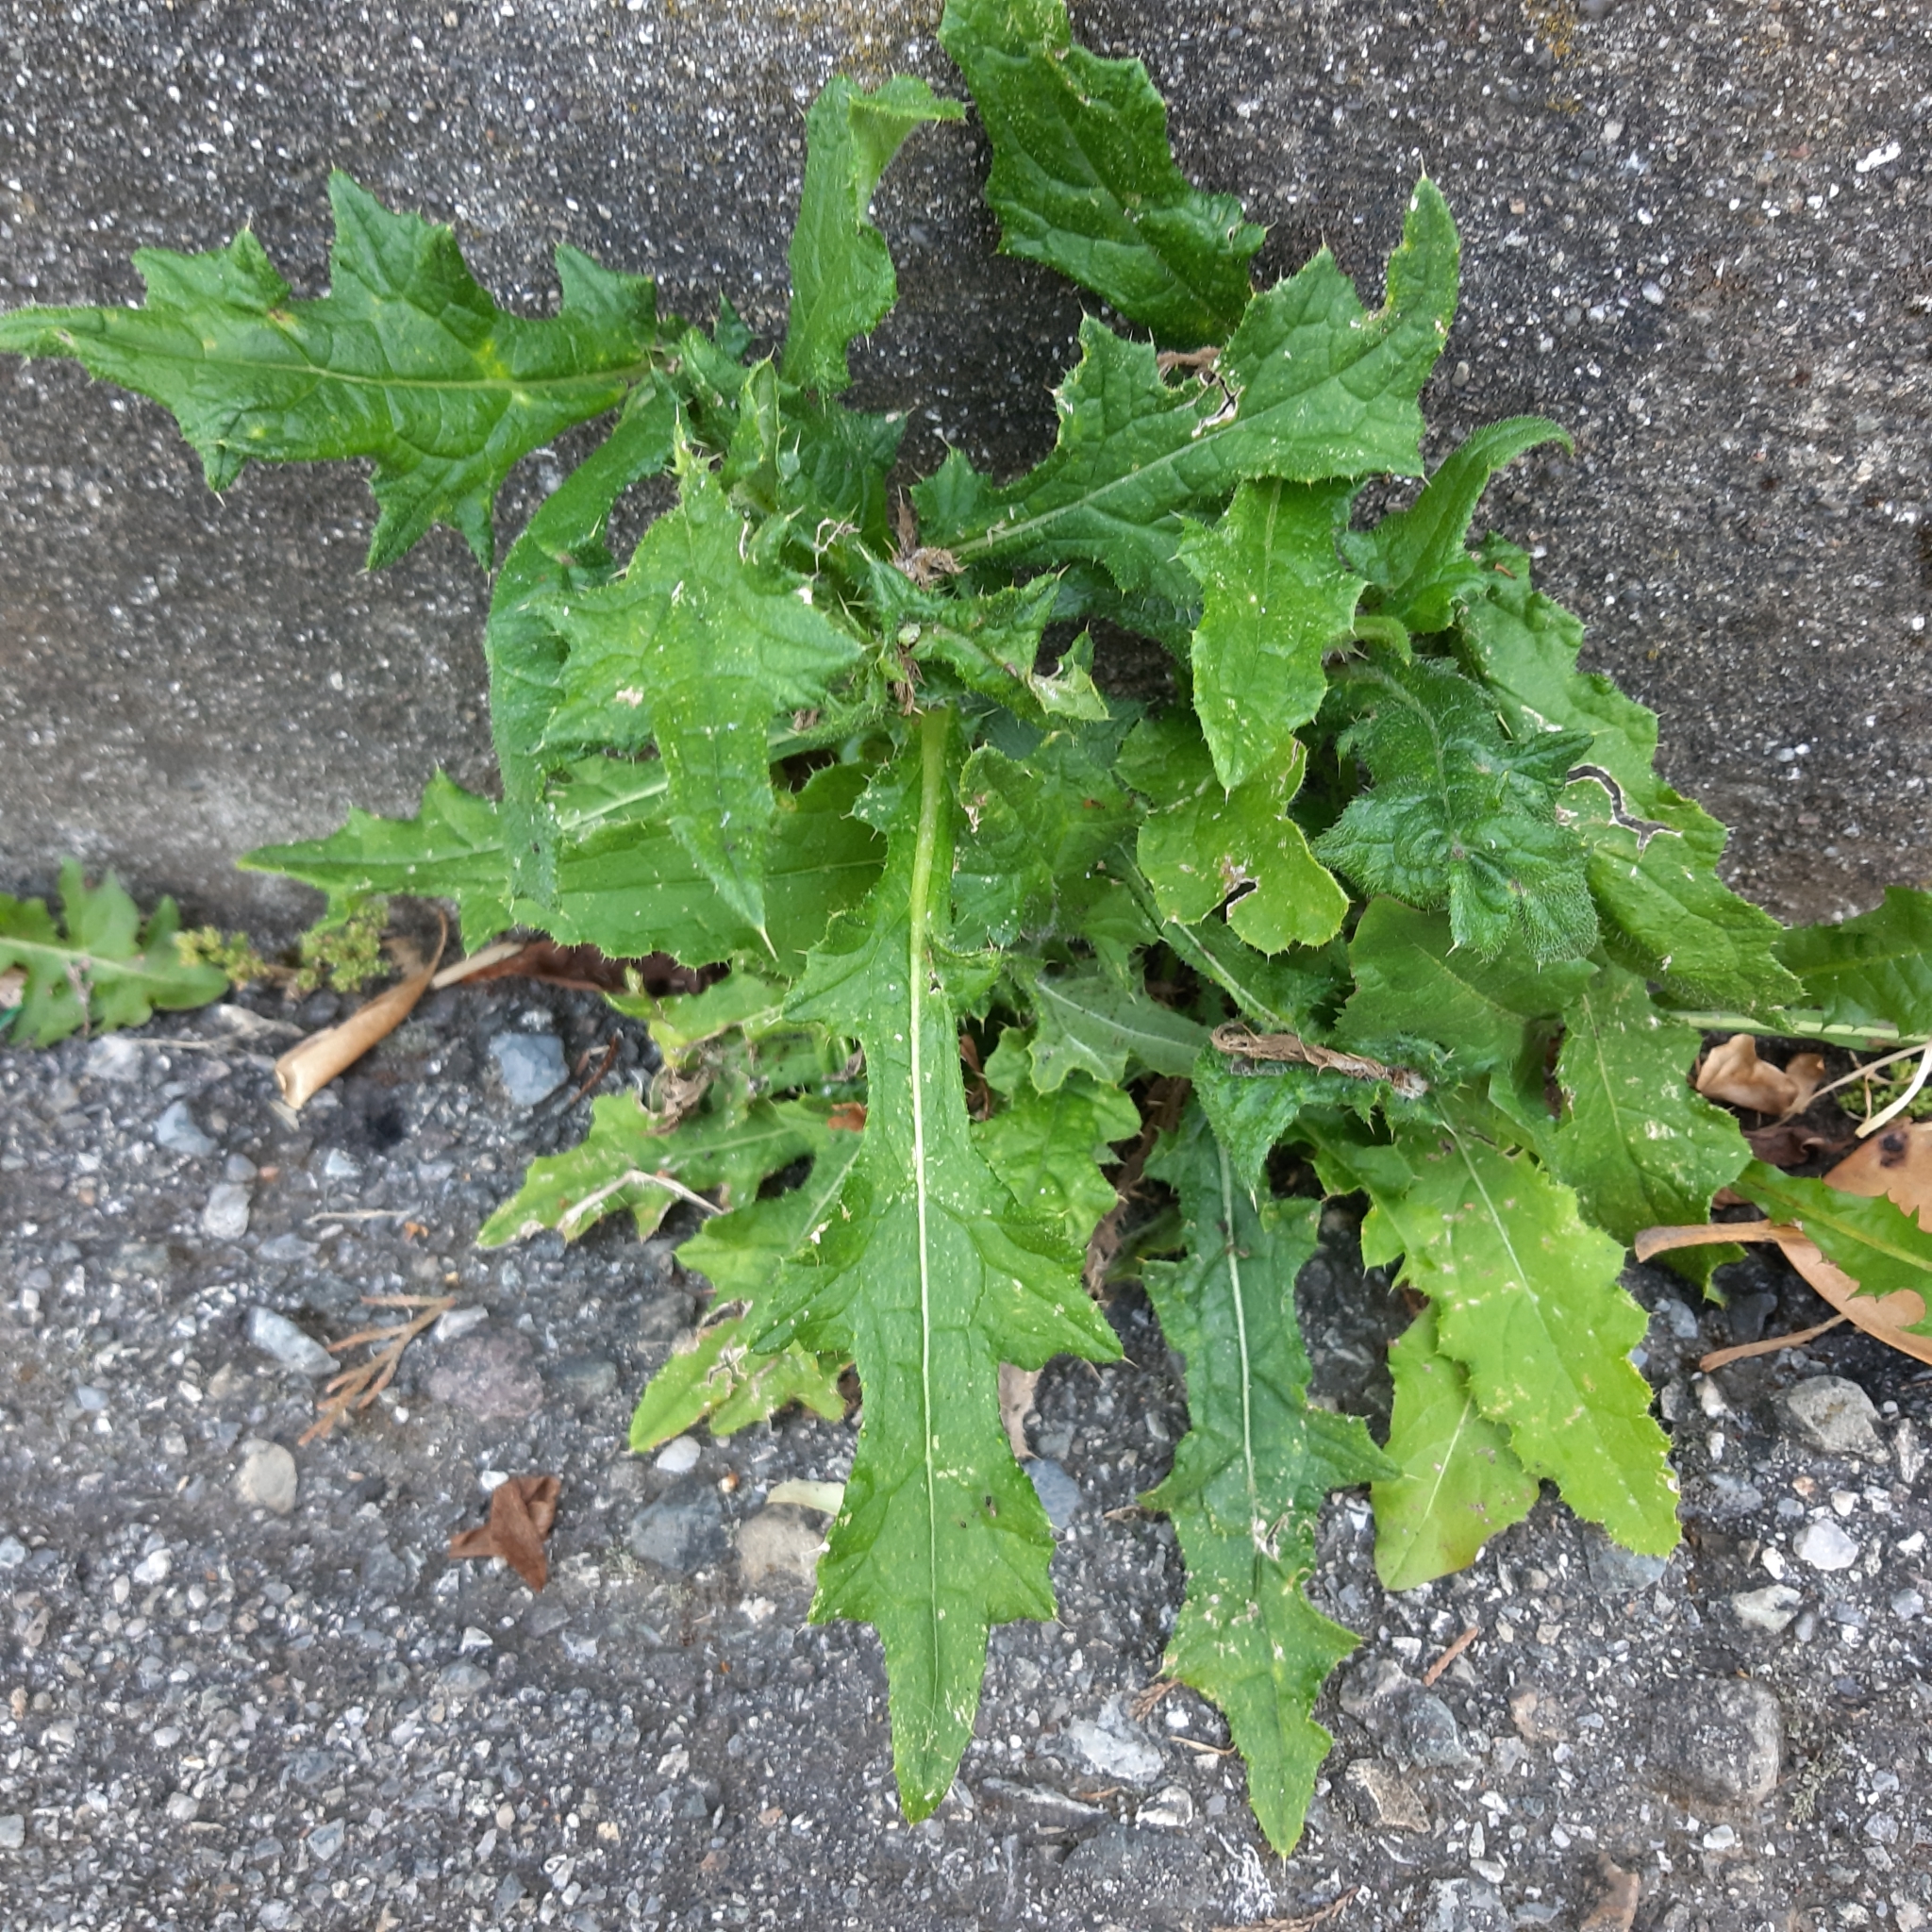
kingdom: Plantae
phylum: Tracheophyta
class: Magnoliopsida
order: Asterales
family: Asteraceae
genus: Cirsium
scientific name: Cirsium vulgare
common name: Bull thistle
